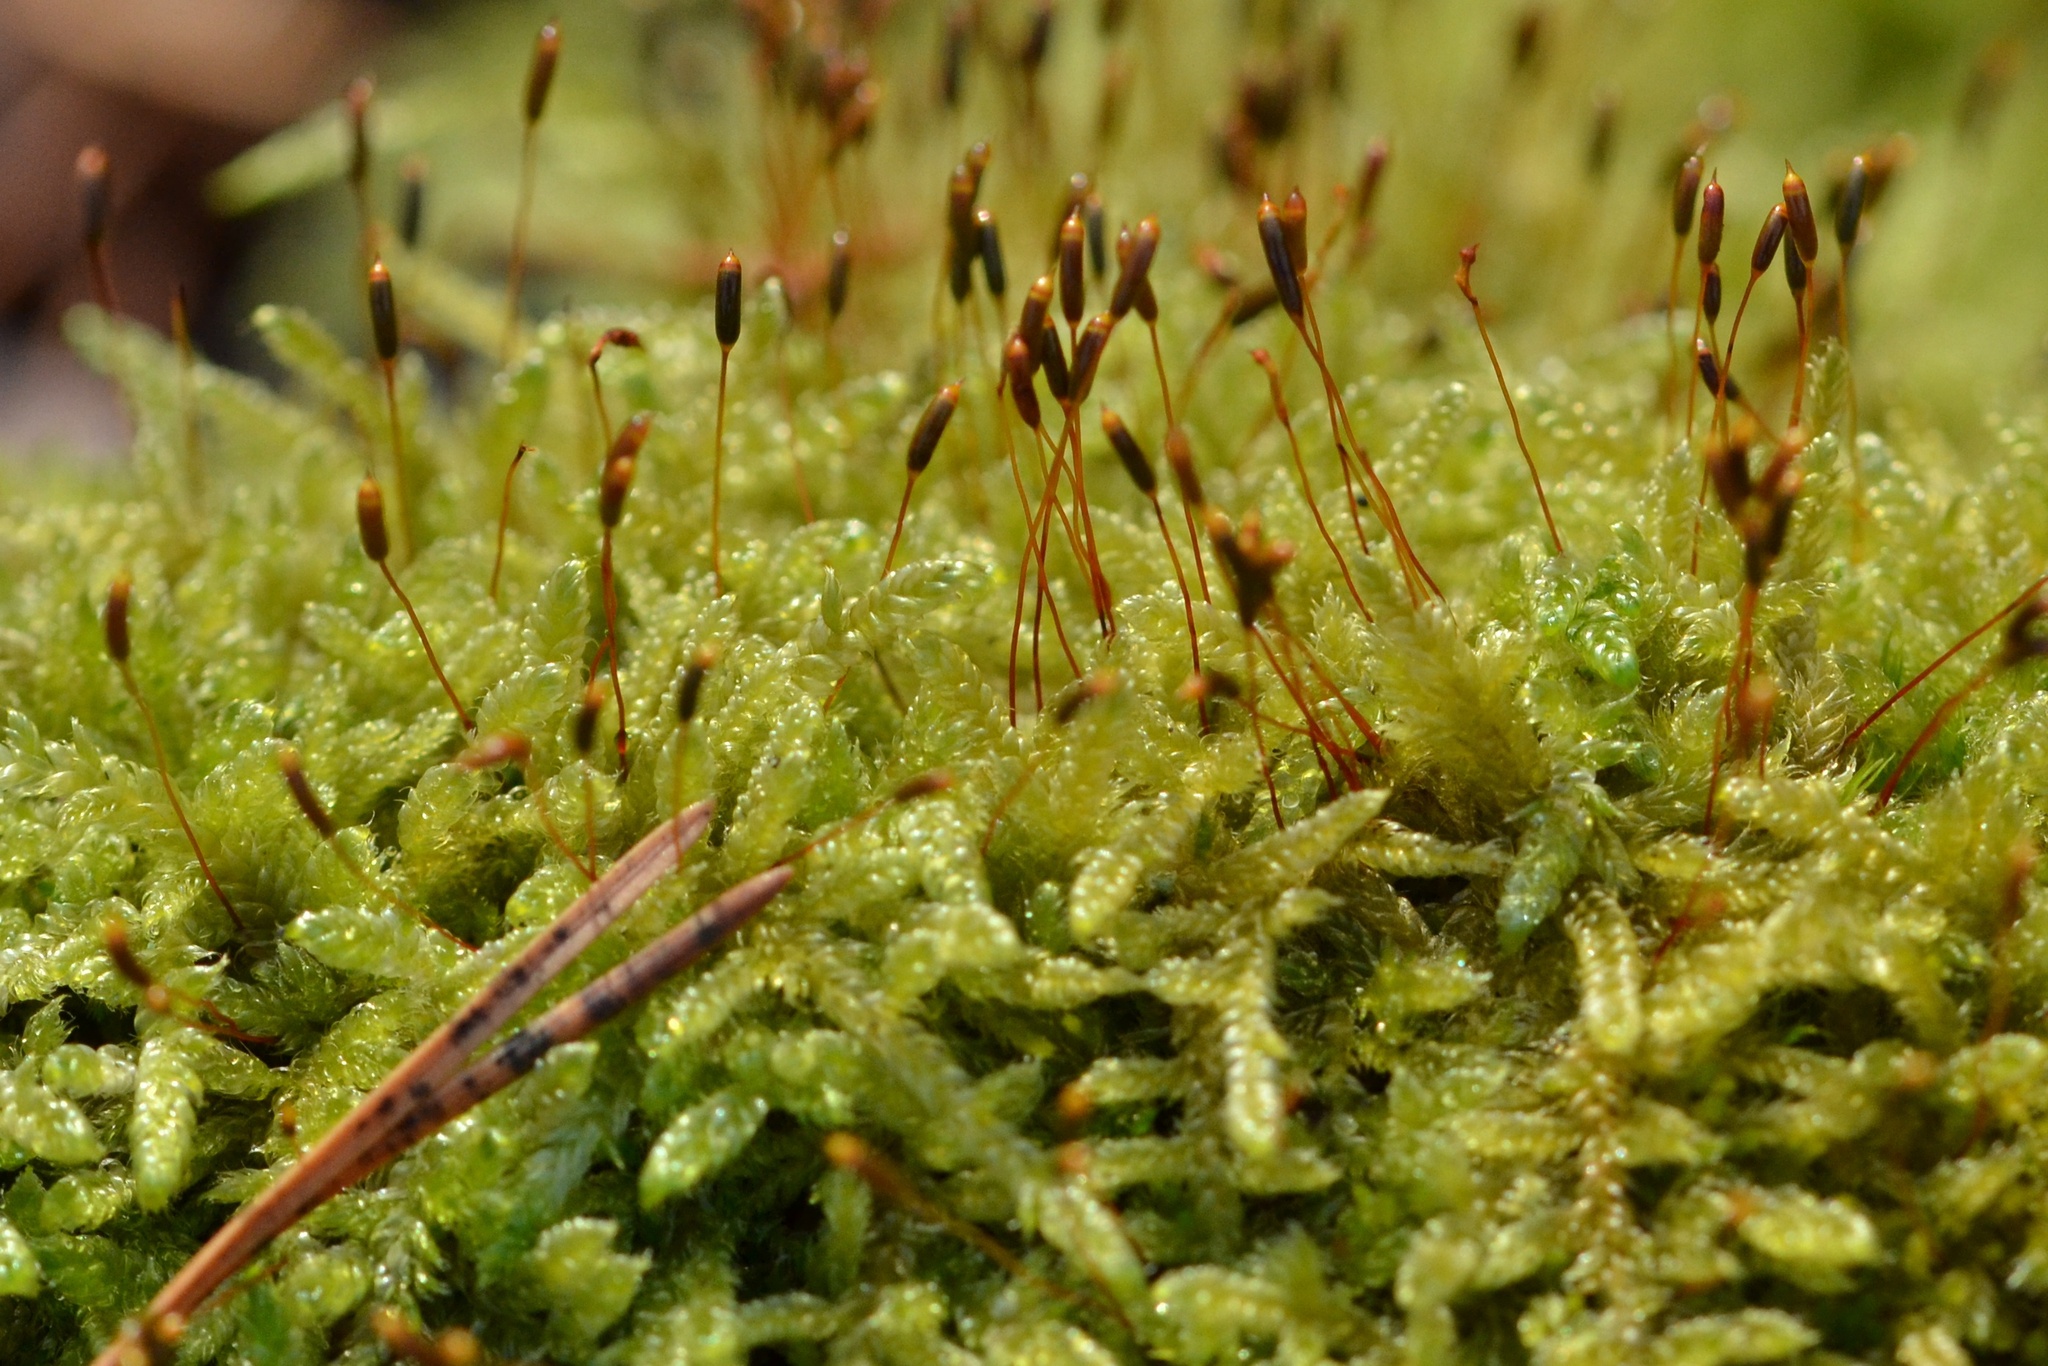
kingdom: Plantae
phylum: Bryophyta
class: Bryopsida
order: Hypnales
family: Hypnaceae
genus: Hypnum
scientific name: Hypnum cupressiforme
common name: Cypress-leaved plait-moss
